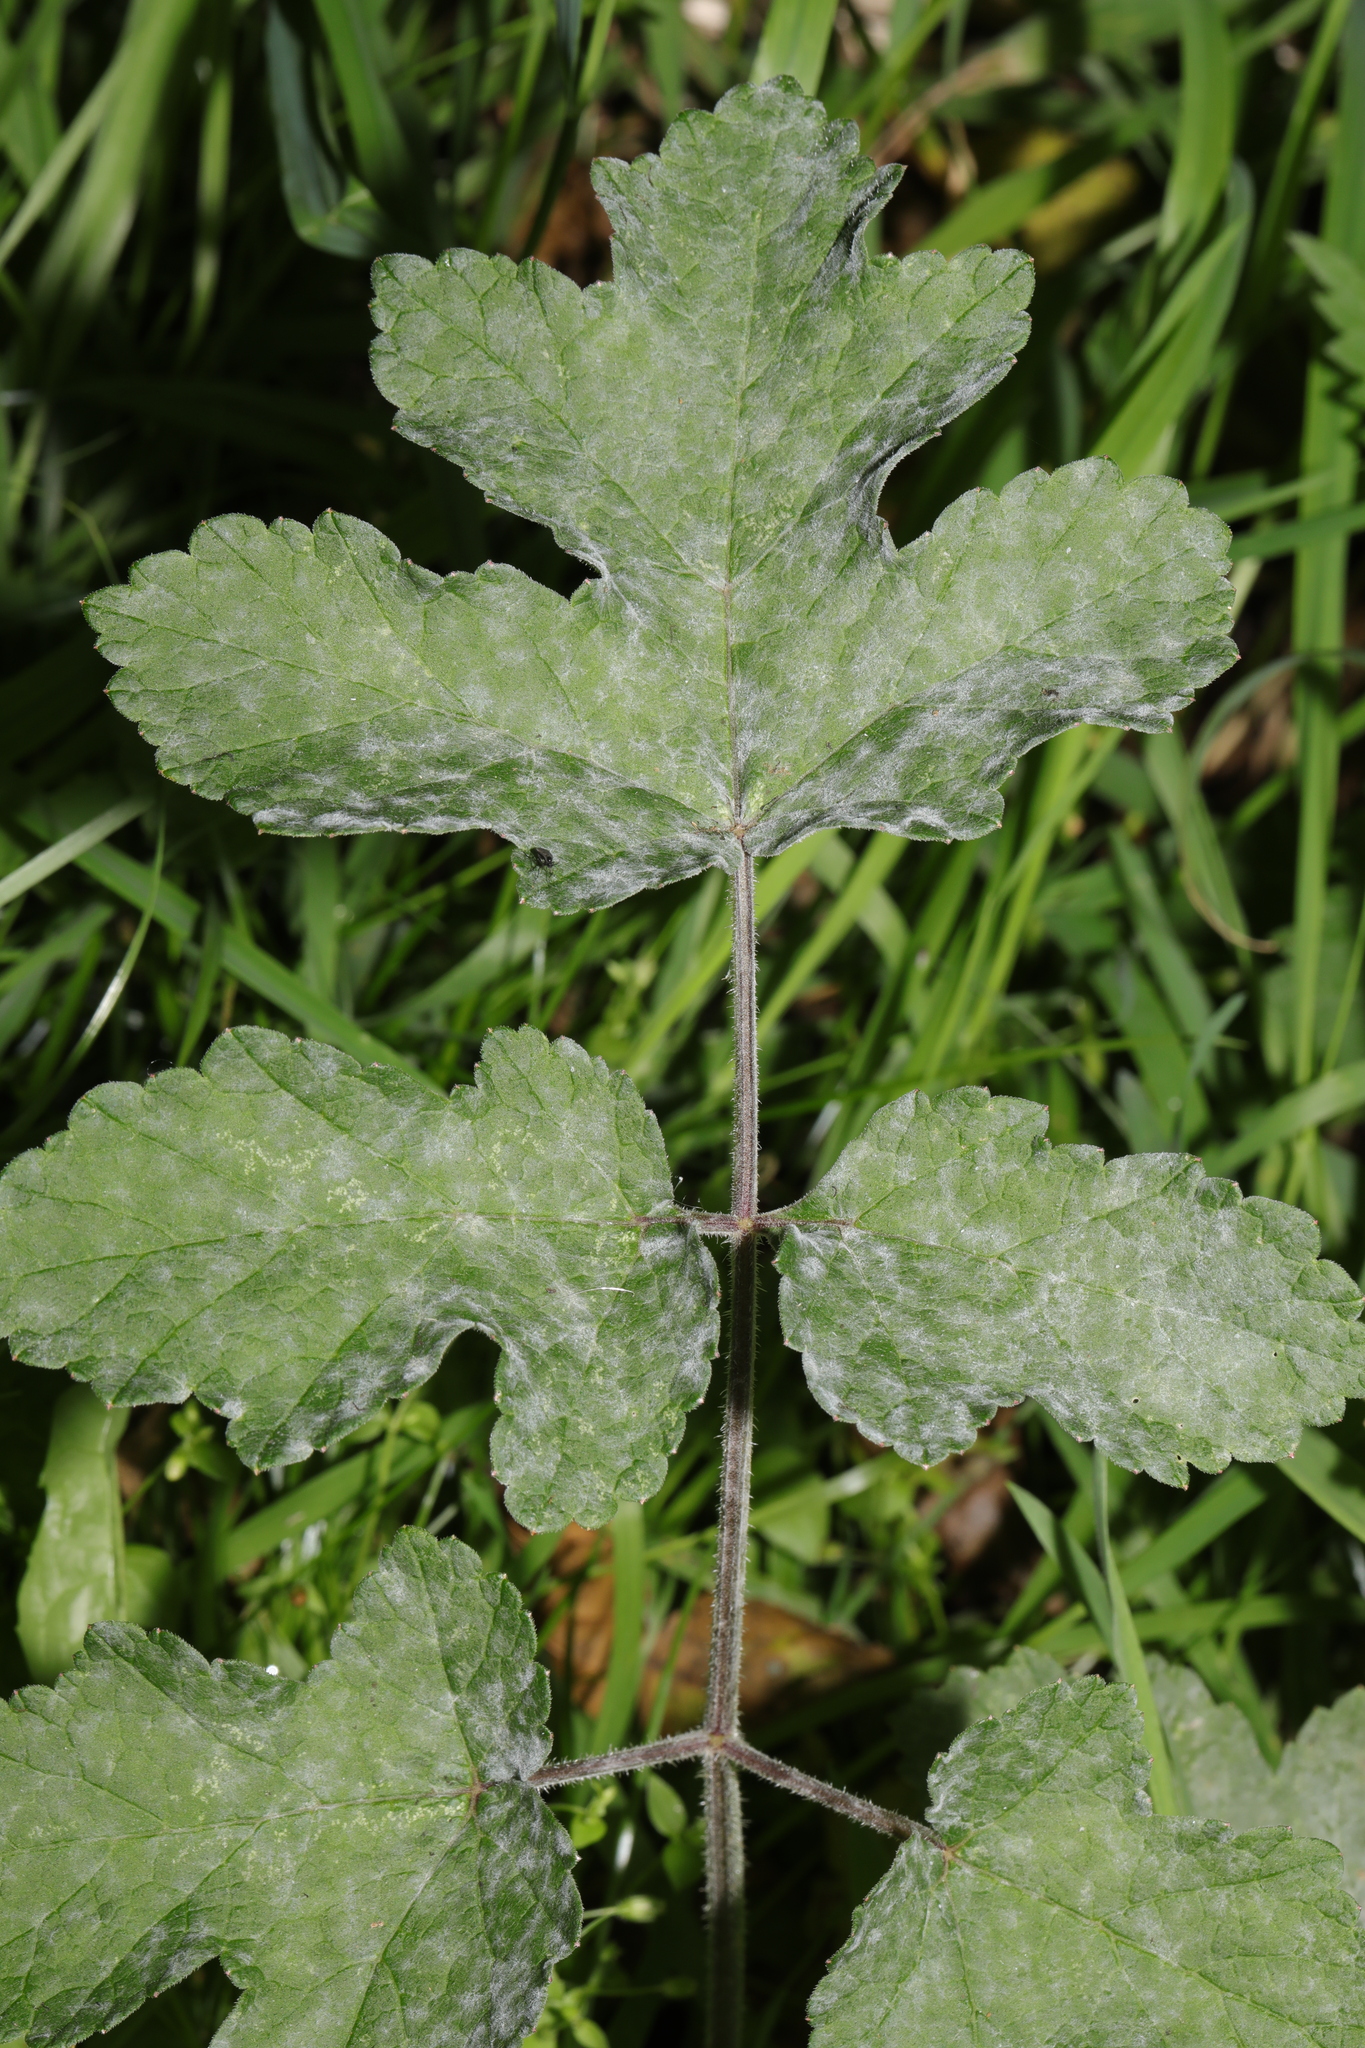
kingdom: Fungi
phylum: Ascomycota
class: Leotiomycetes
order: Helotiales
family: Erysiphaceae
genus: Erysiphe
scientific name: Erysiphe heraclei
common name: Umbellifer mildew
